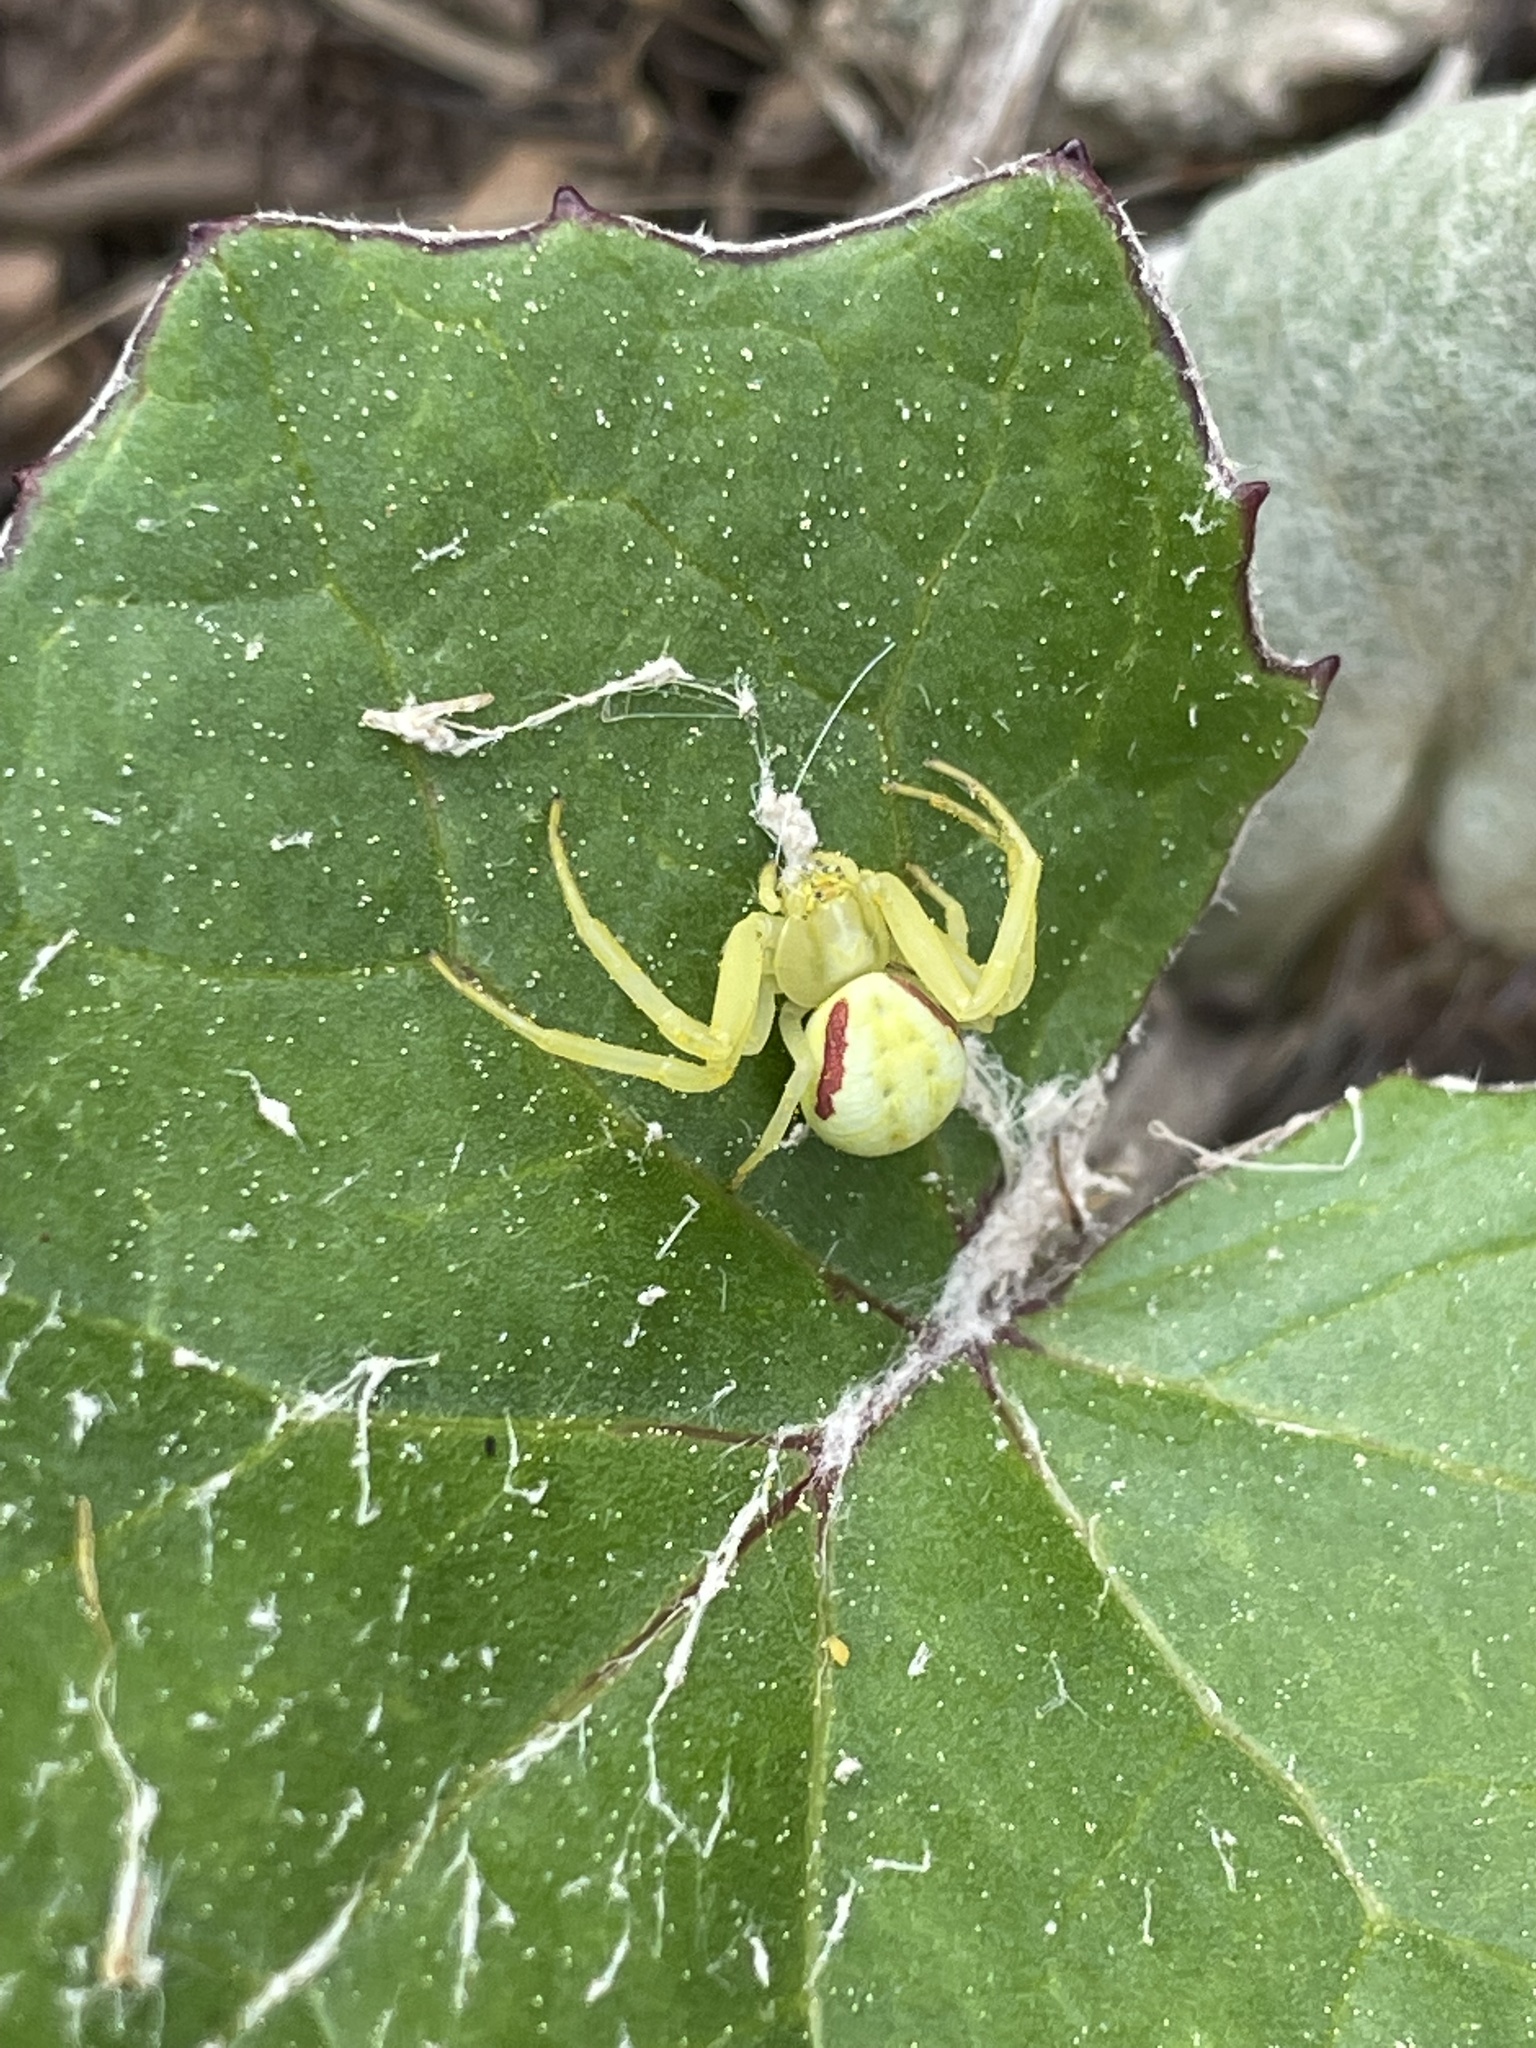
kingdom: Animalia
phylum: Arthropoda
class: Arachnida
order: Araneae
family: Thomisidae
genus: Misumena
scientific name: Misumena vatia
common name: Goldenrod crab spider
